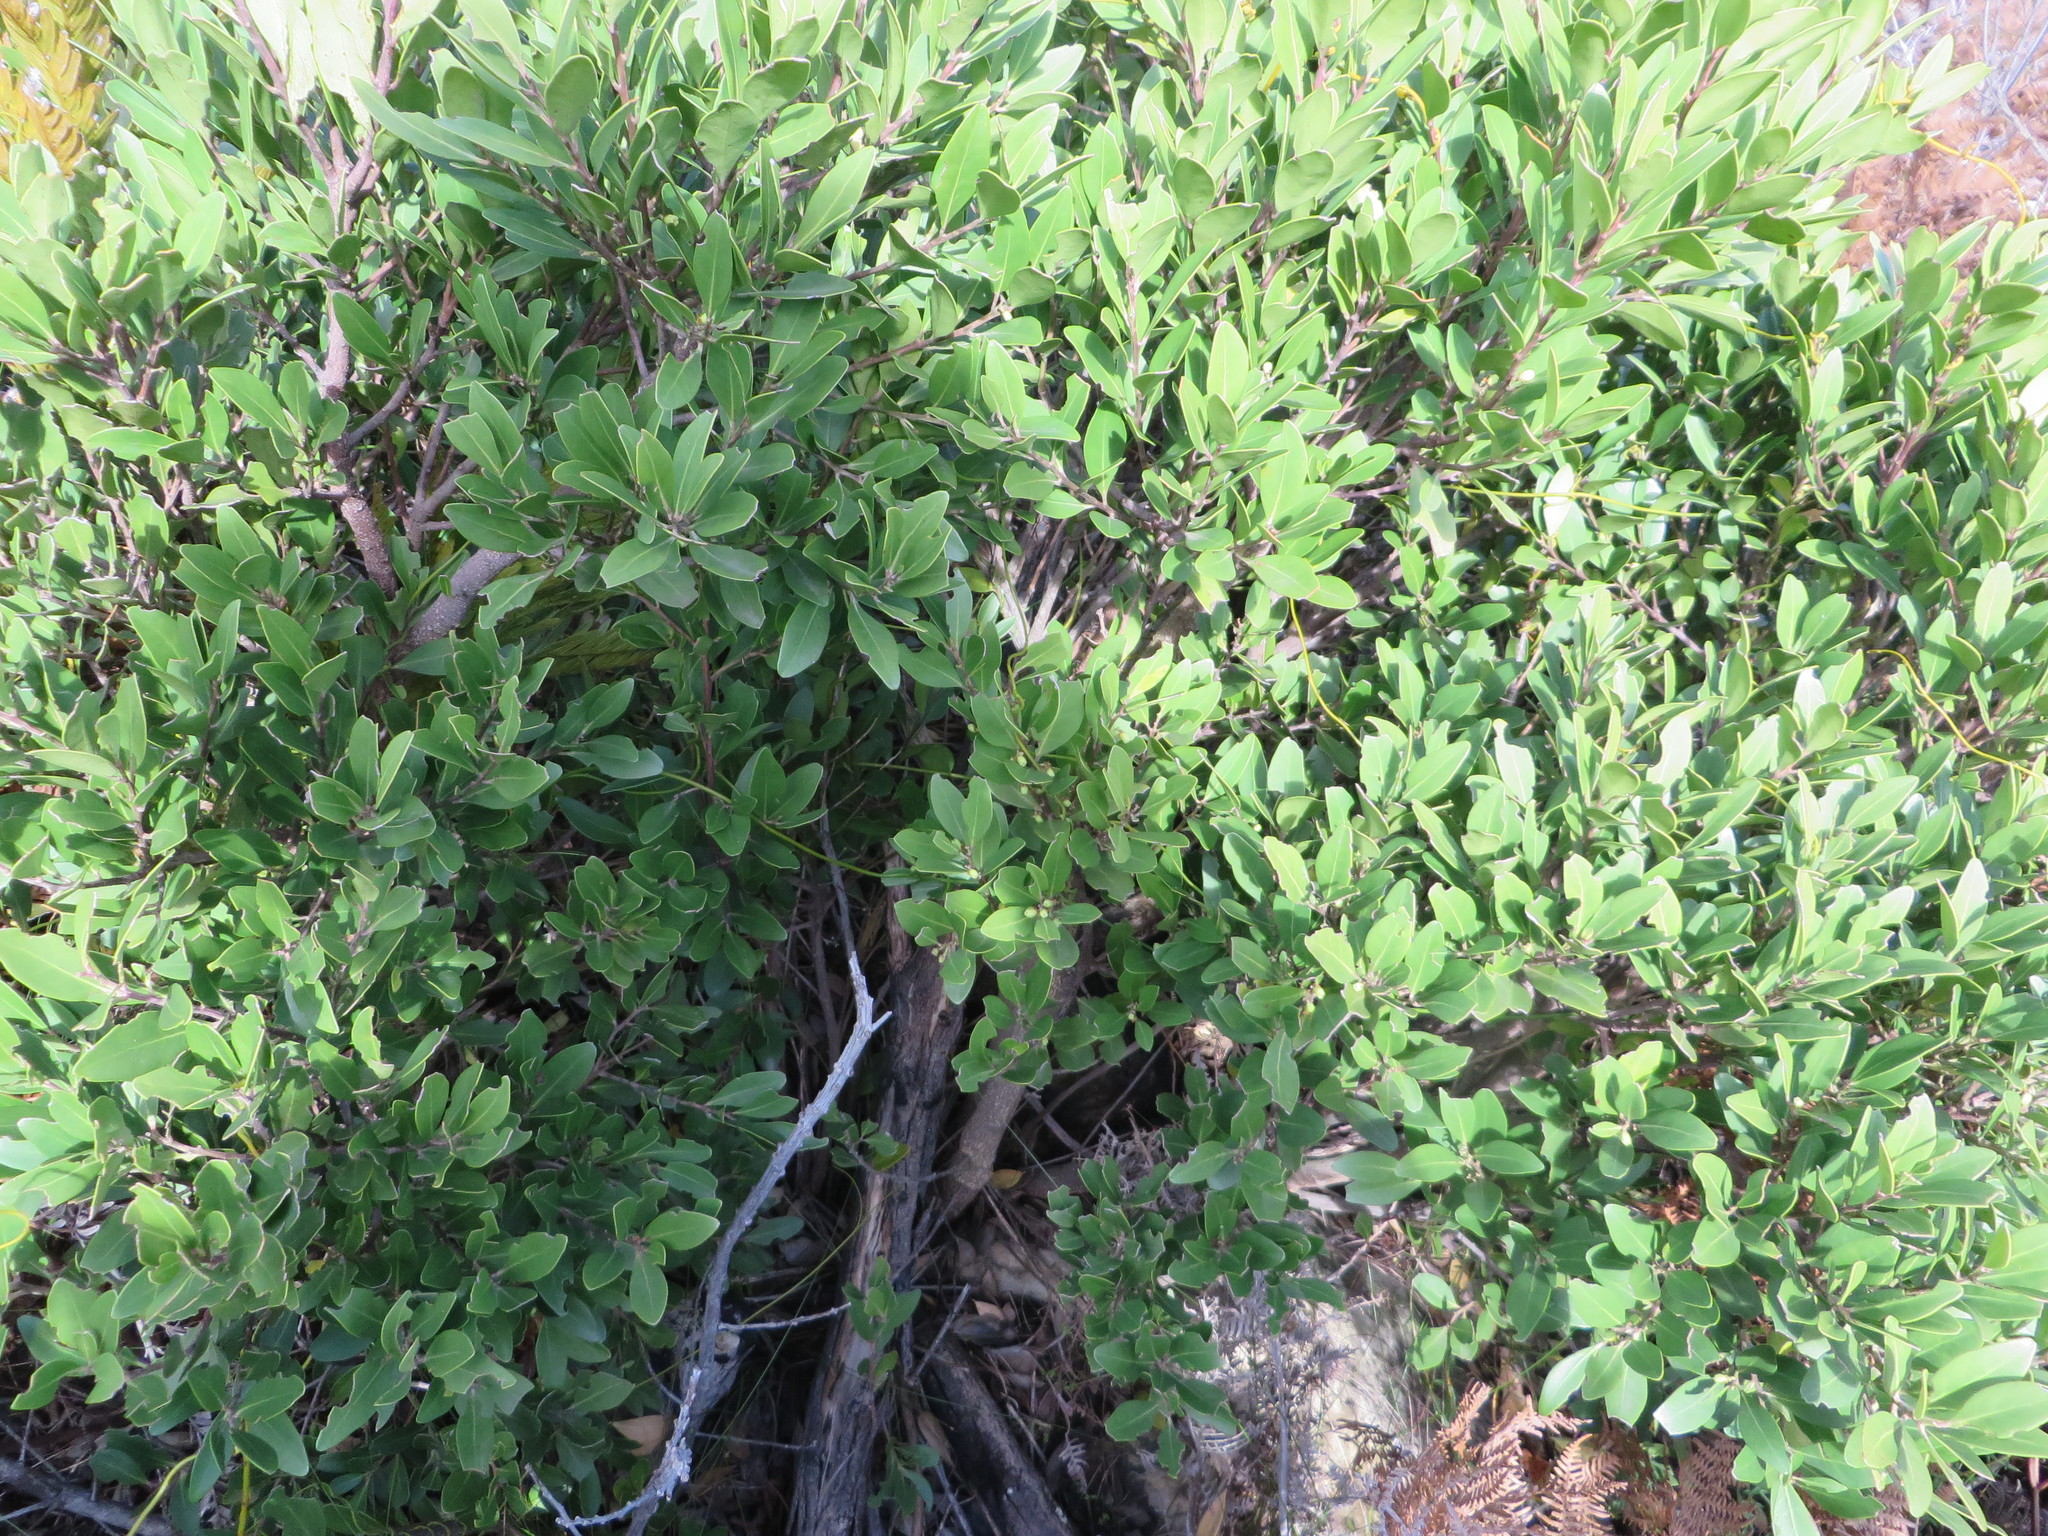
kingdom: Plantae
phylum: Tracheophyta
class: Magnoliopsida
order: Celastrales
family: Celastraceae
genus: Gymnosporia
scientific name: Gymnosporia laurina
